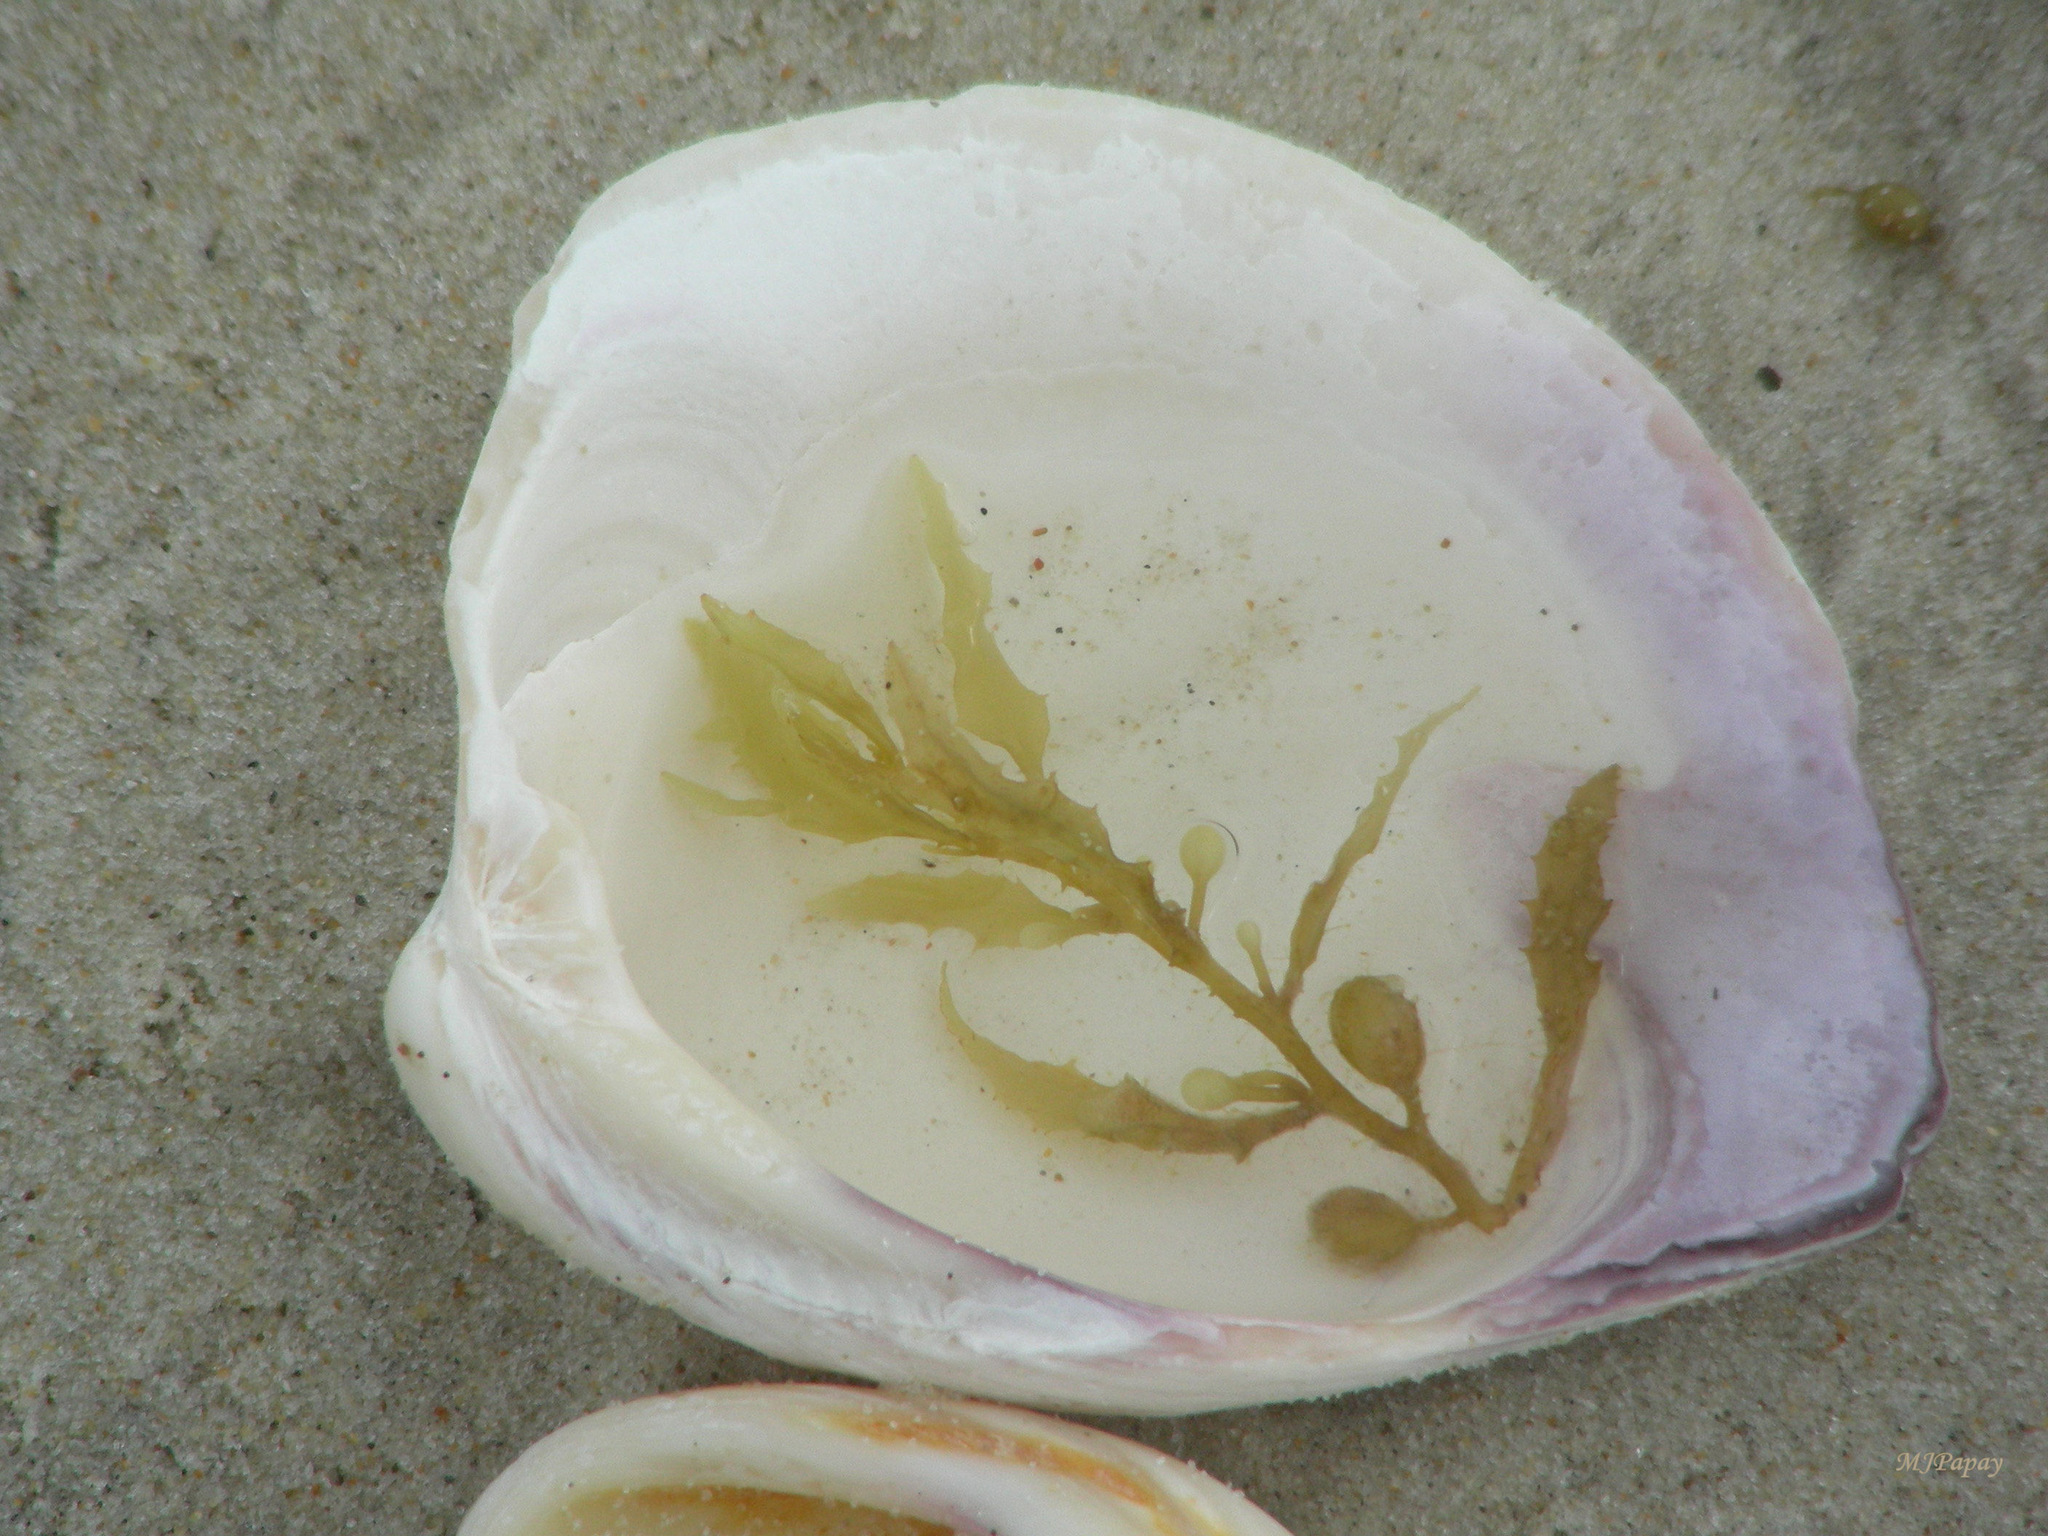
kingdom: Chromista
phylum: Ochrophyta
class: Phaeophyceae
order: Fucales
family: Sargassaceae
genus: Sargassum
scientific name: Sargassum fluitans
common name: Sargassum seaweed
